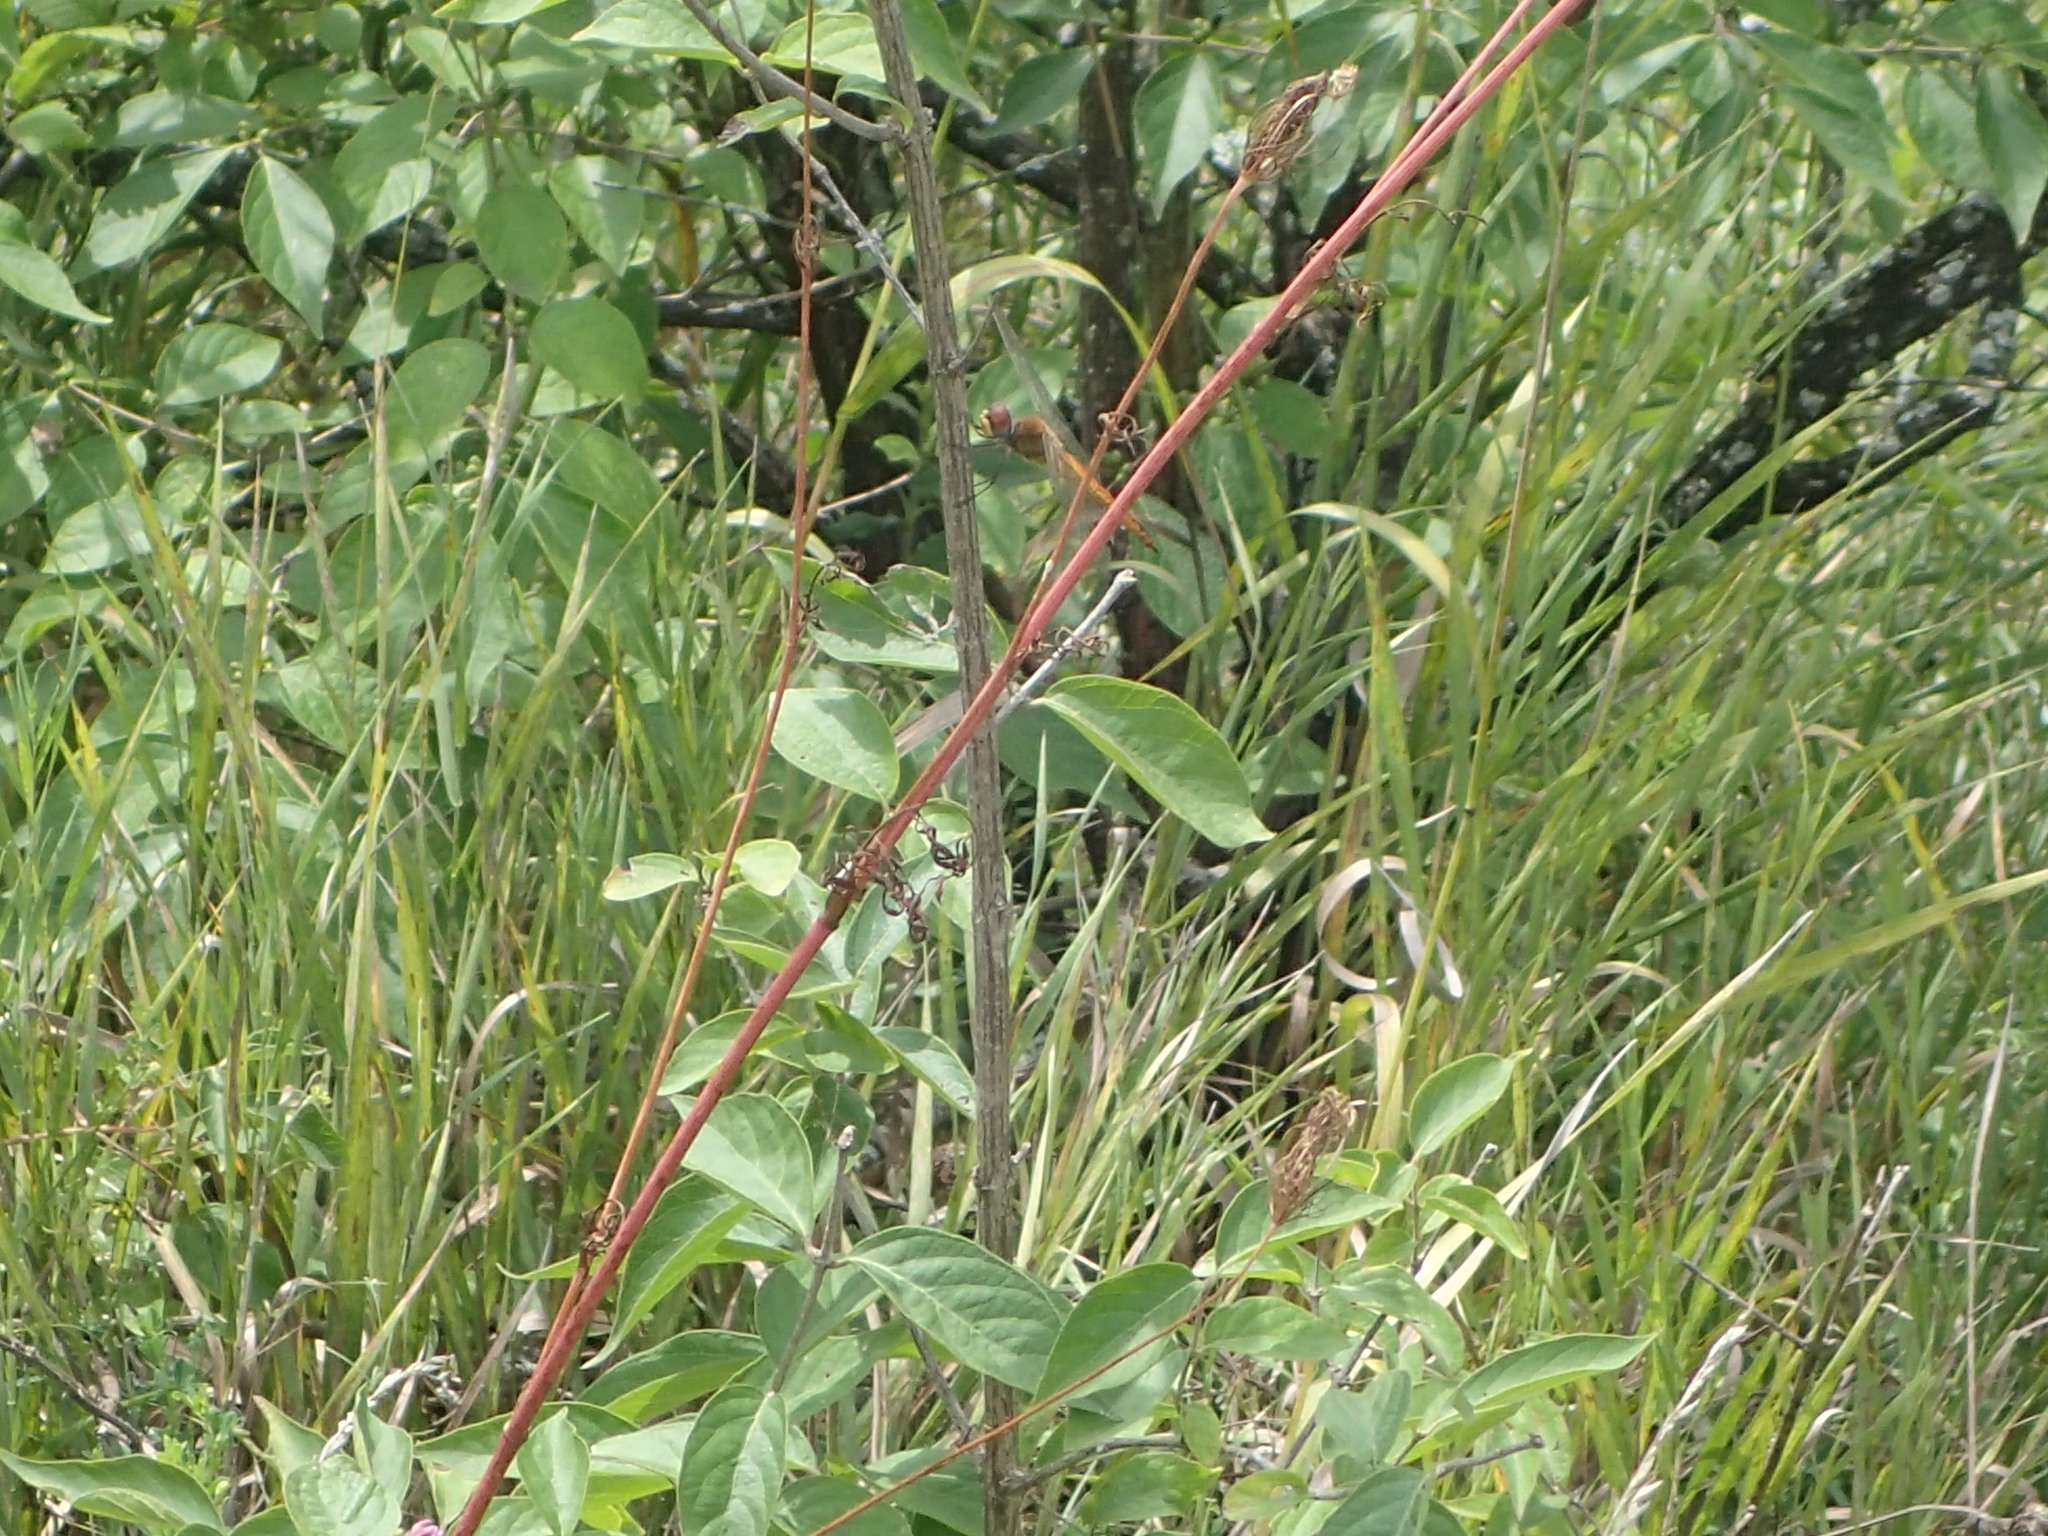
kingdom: Animalia
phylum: Arthropoda
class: Insecta
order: Odonata
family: Libellulidae
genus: Pantala
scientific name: Pantala flavescens
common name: Wandering glider
